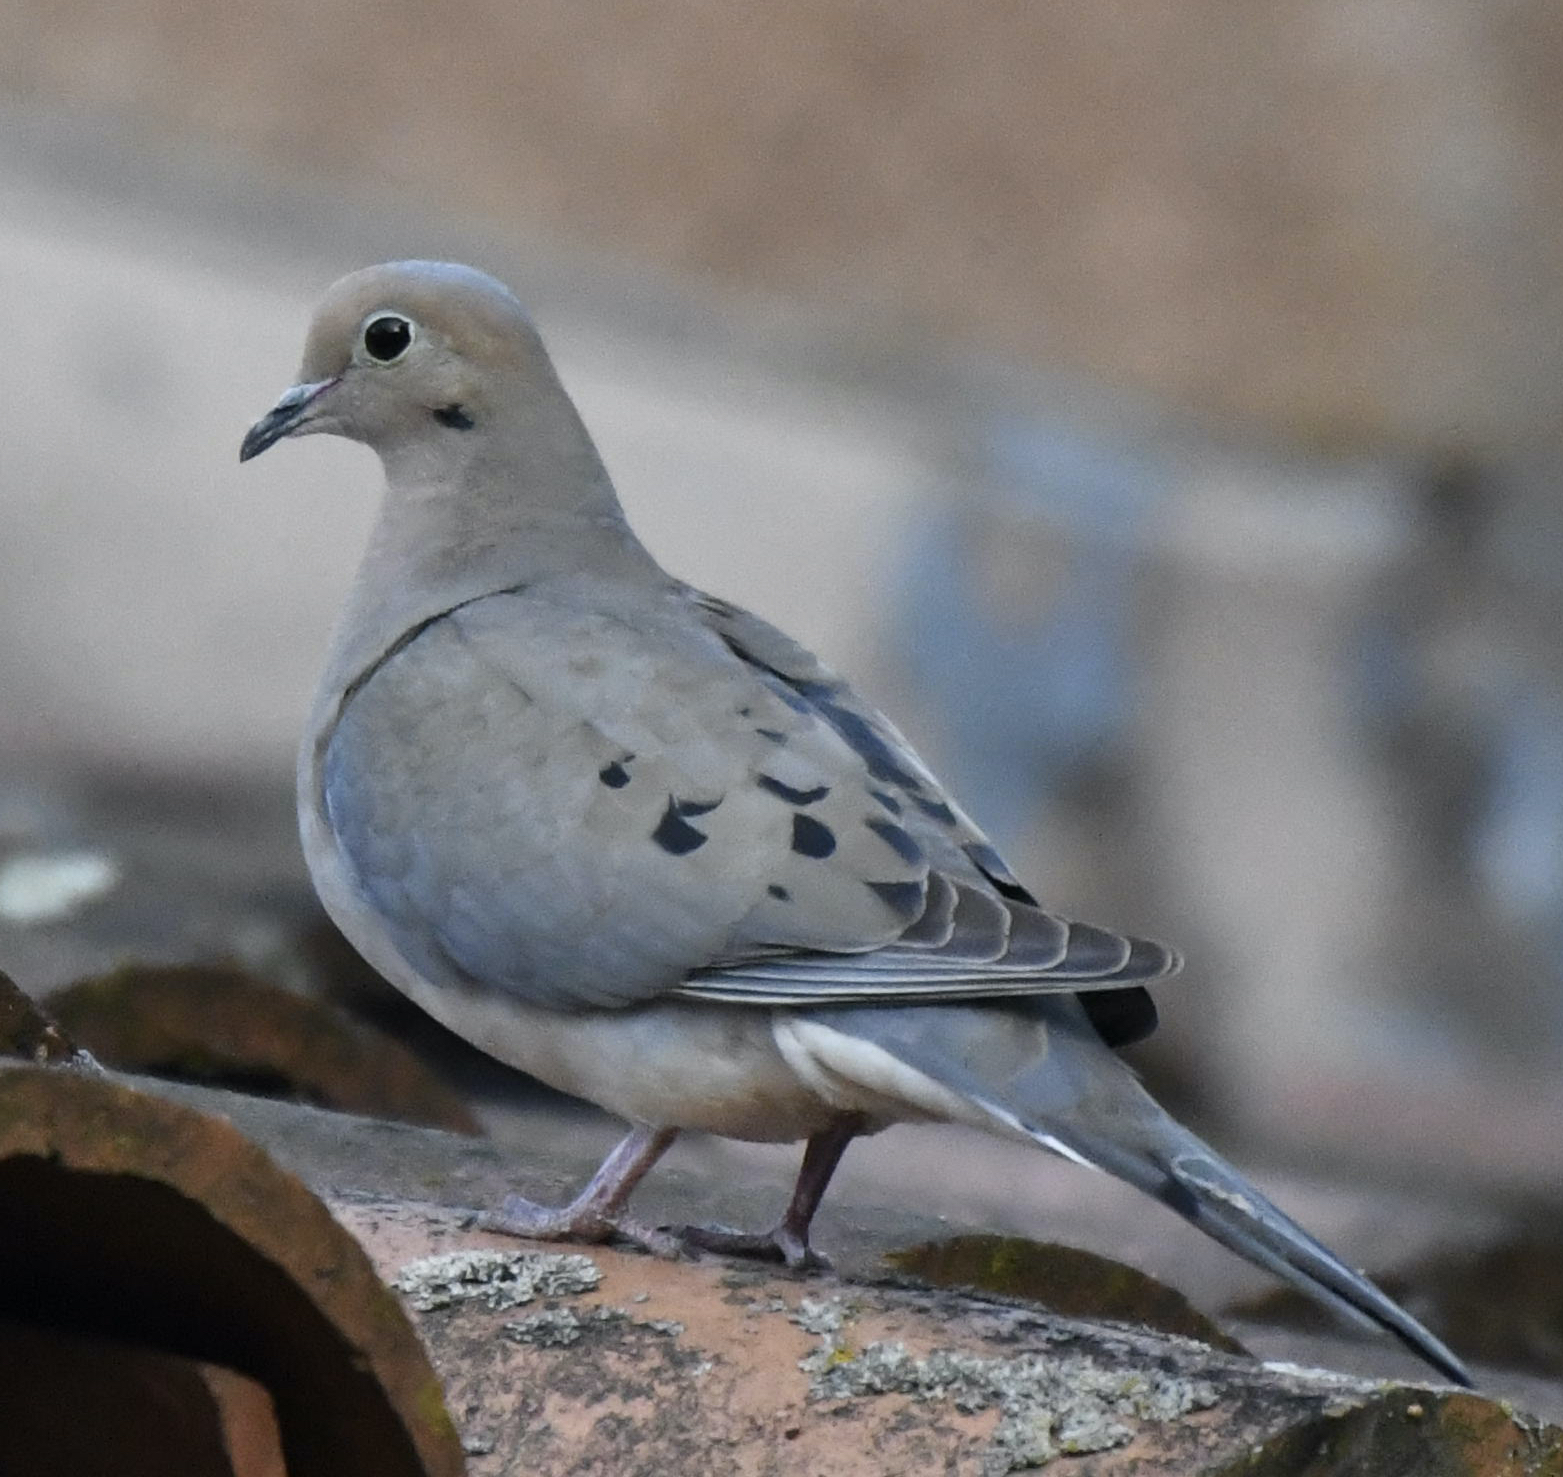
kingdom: Animalia
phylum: Chordata
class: Aves
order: Columbiformes
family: Columbidae
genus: Zenaida
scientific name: Zenaida macroura
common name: Mourning dove
